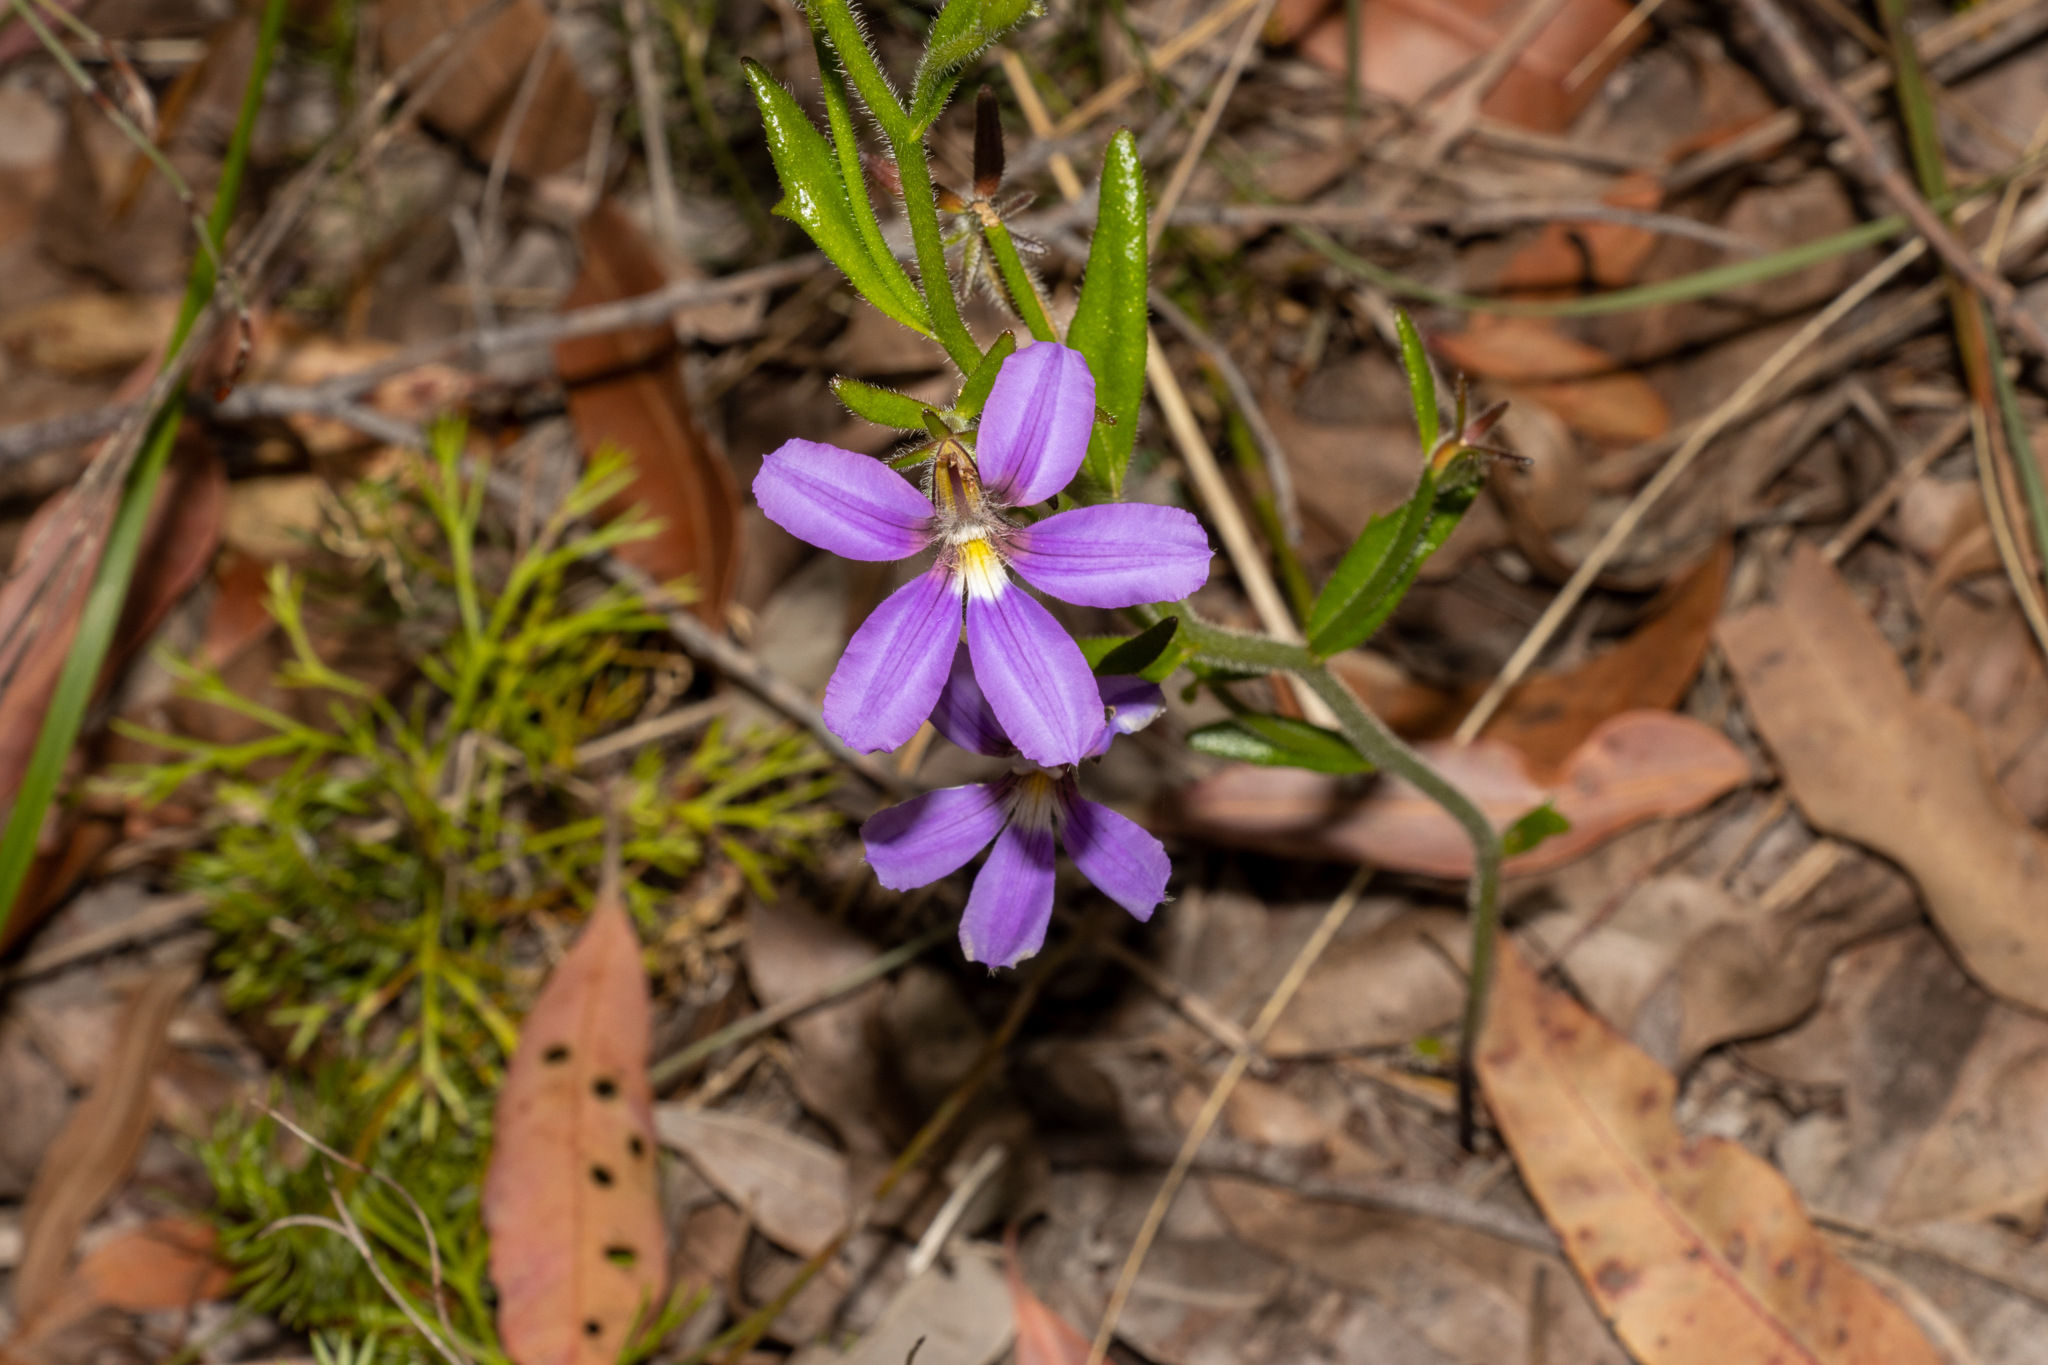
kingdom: Plantae
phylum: Tracheophyta
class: Magnoliopsida
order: Asterales
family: Goodeniaceae
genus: Scaevola
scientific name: Scaevola ramosissima
